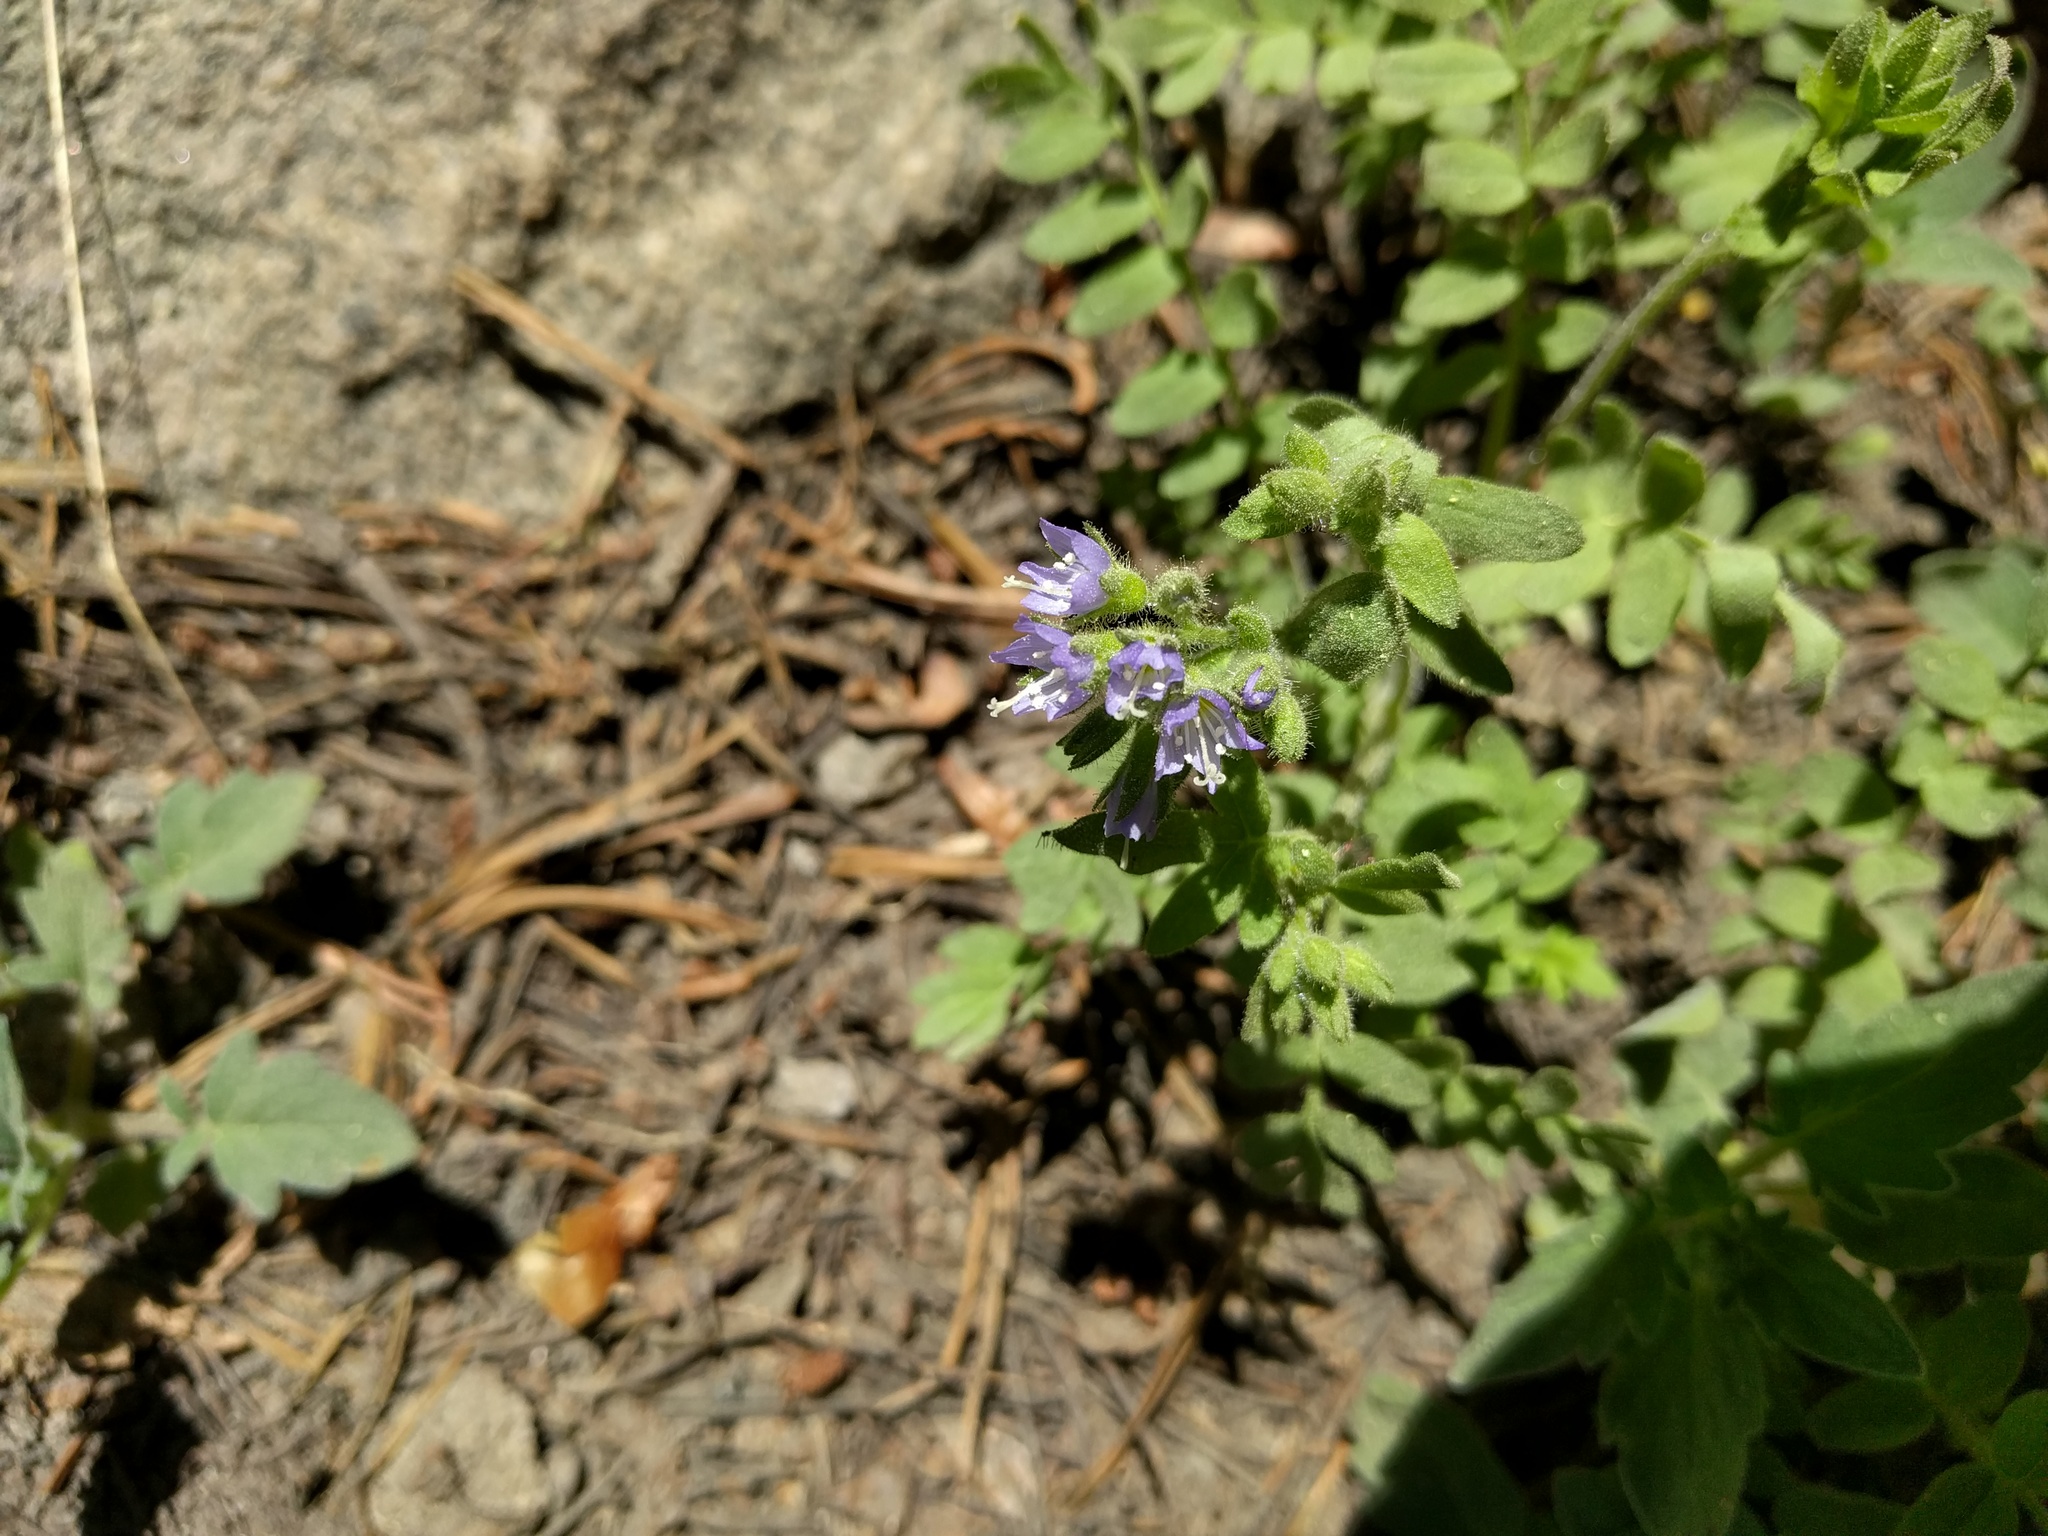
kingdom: Plantae
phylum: Tracheophyta
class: Magnoliopsida
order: Ericales
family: Polemoniaceae
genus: Polemonium
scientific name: Polemonium californicum
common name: California jacob's ladder
